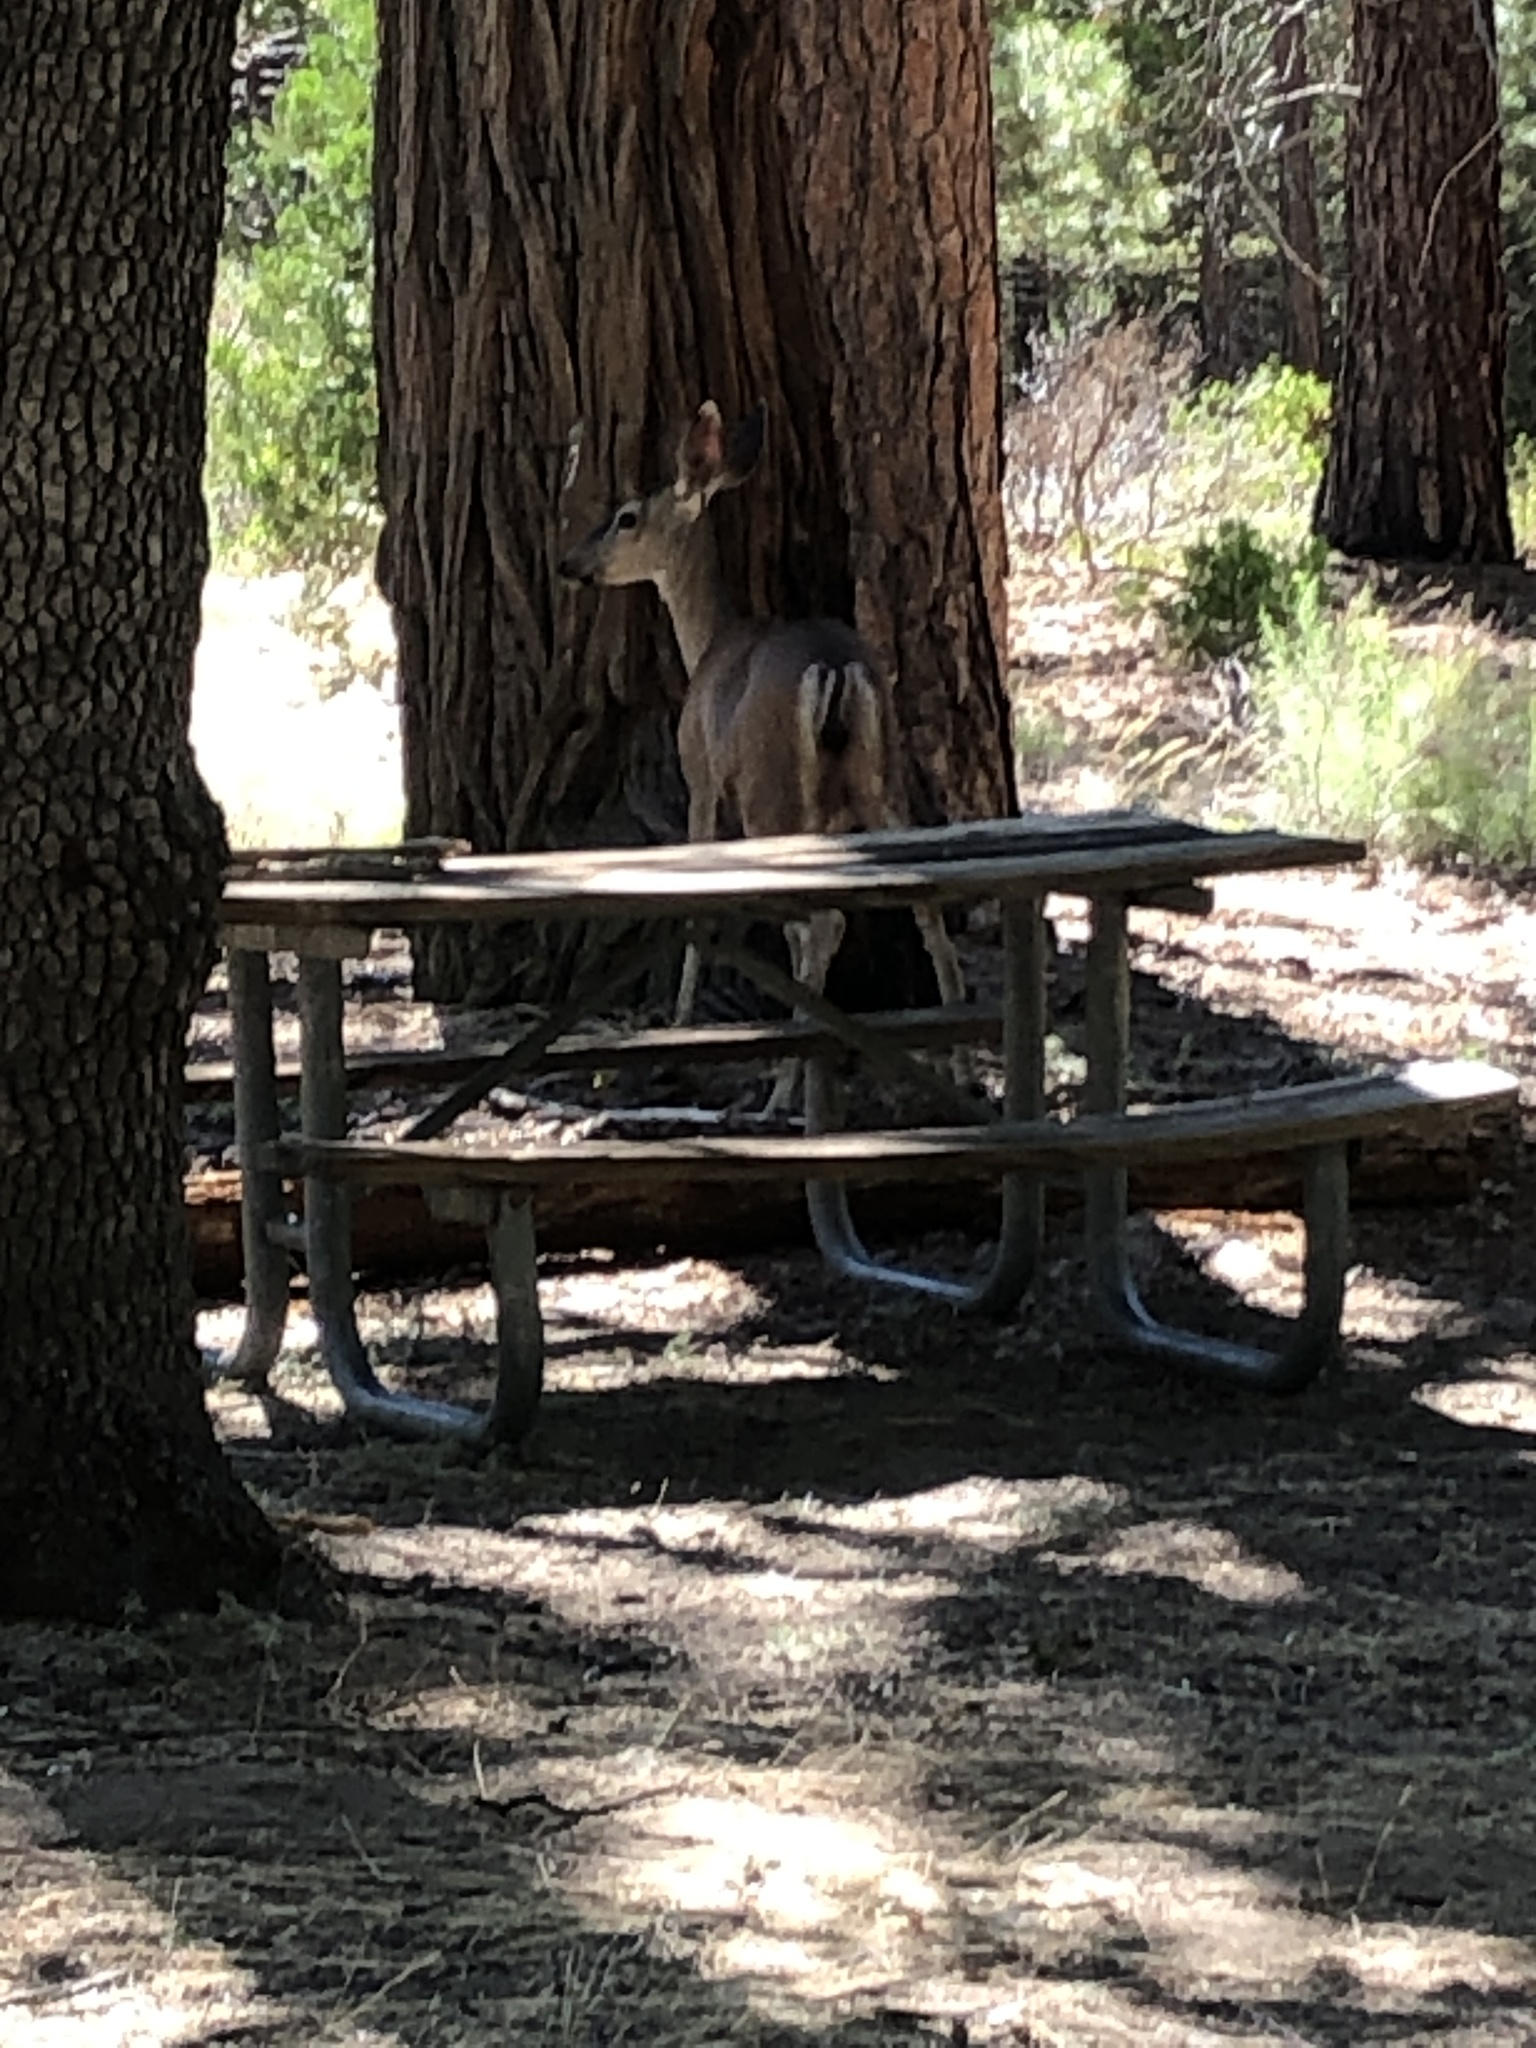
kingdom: Animalia
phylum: Chordata
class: Mammalia
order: Artiodactyla
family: Cervidae
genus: Odocoileus
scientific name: Odocoileus hemionus
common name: Mule deer
